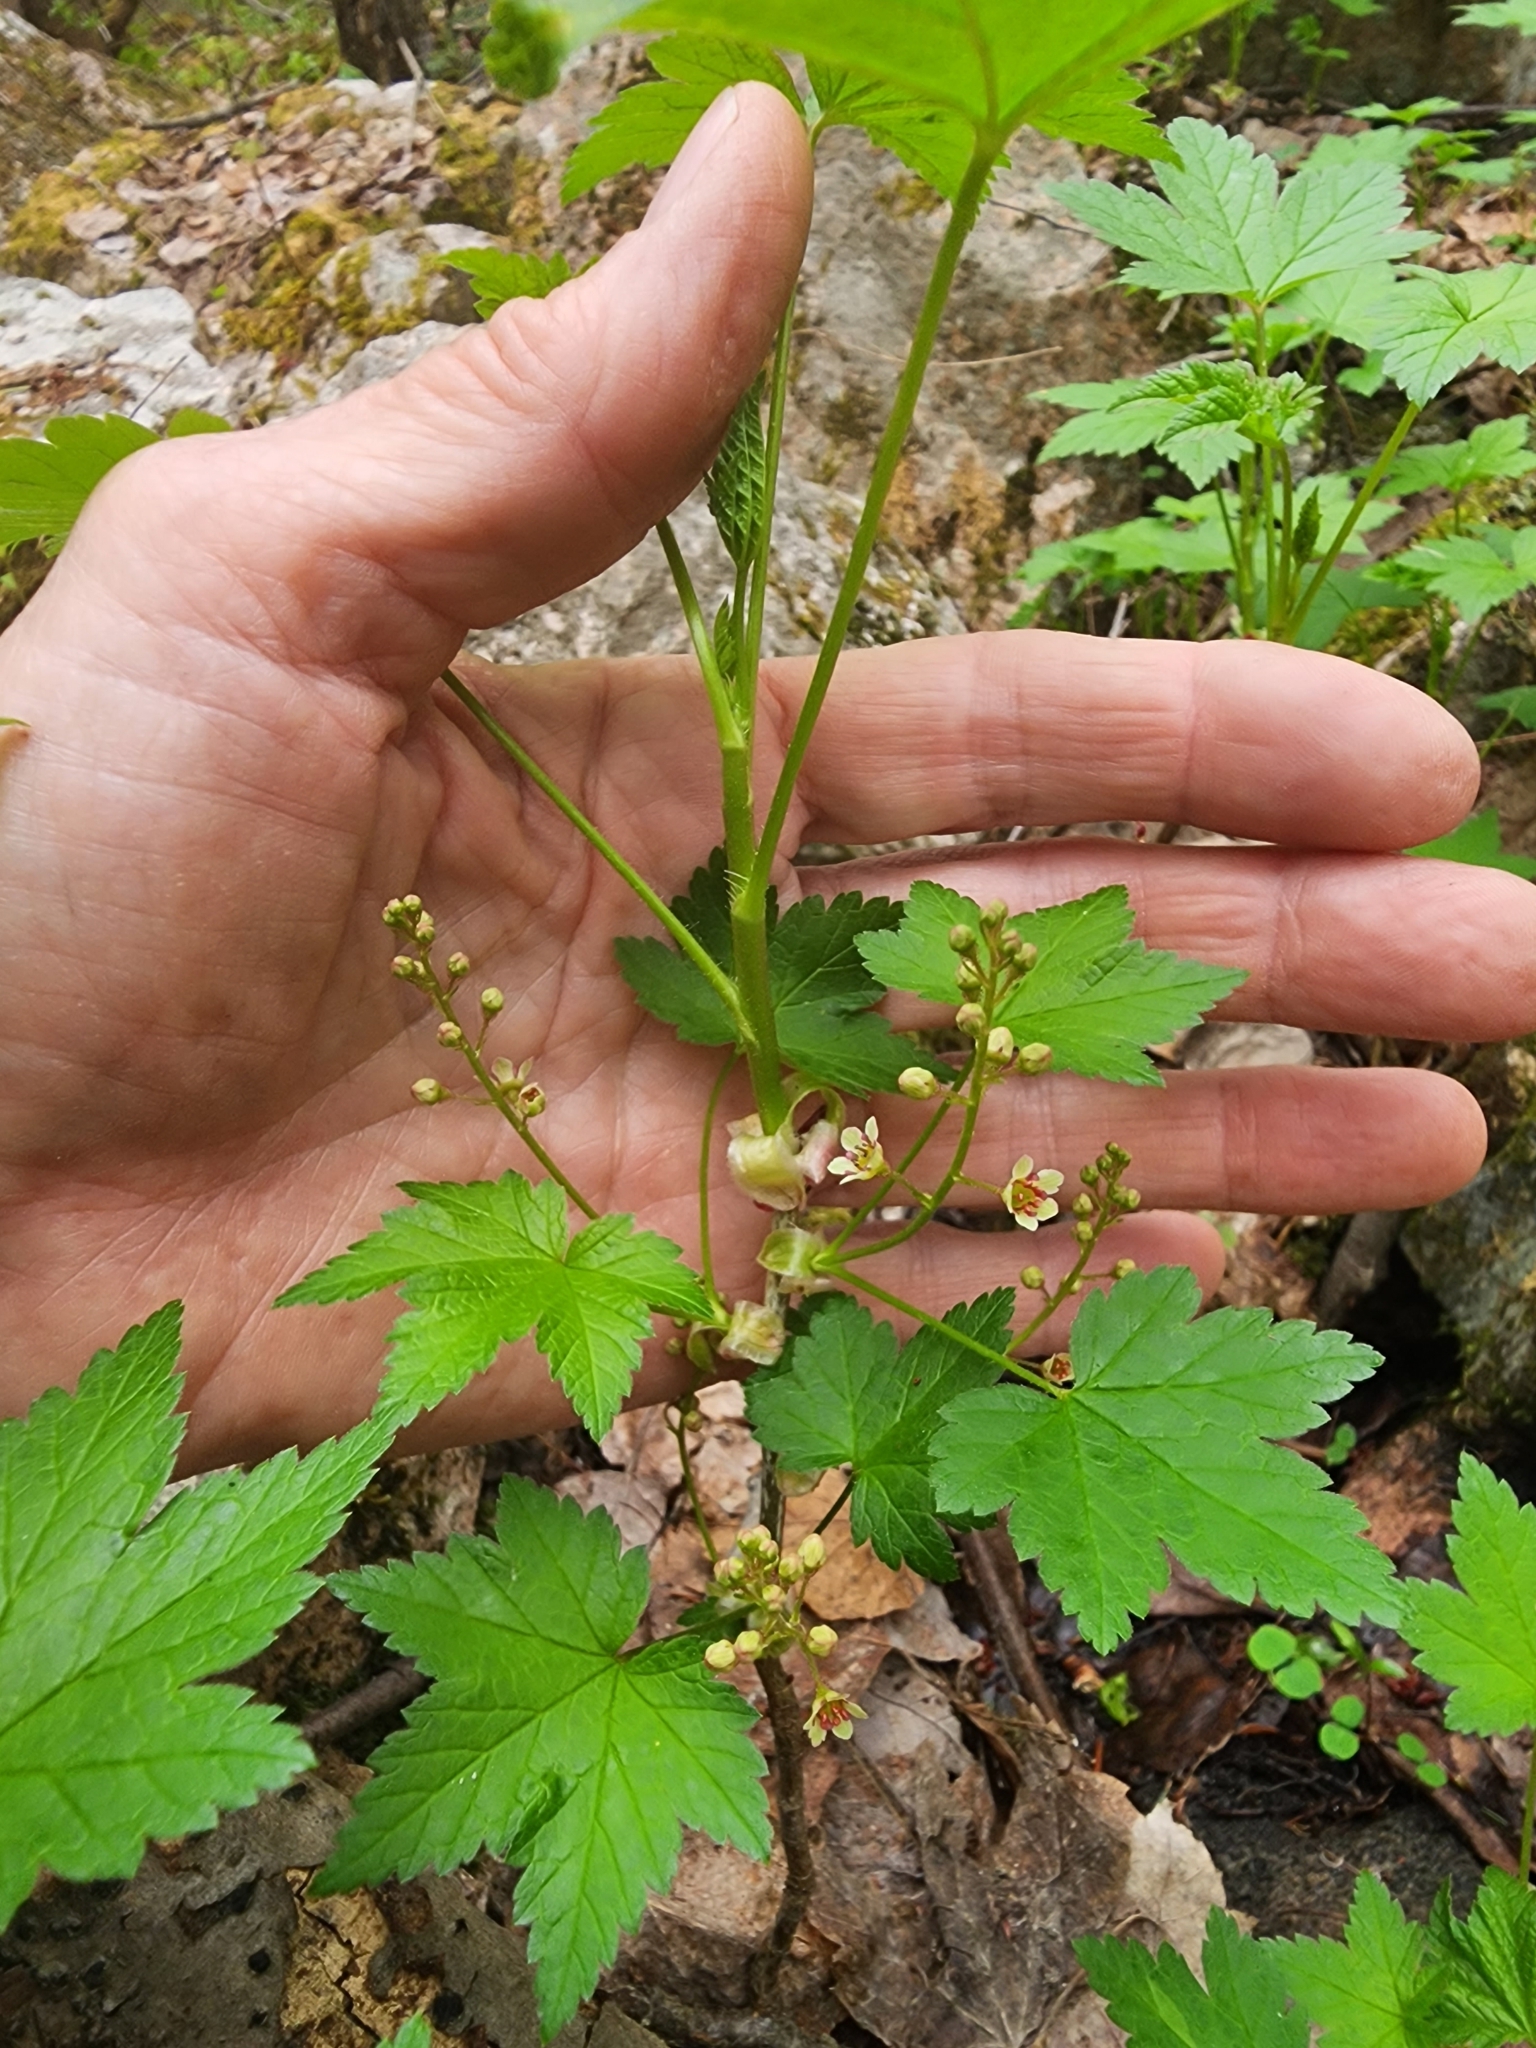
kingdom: Plantae
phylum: Tracheophyta
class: Magnoliopsida
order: Saxifragales
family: Grossulariaceae
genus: Ribes
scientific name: Ribes glandulosum
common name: Skunk currant
